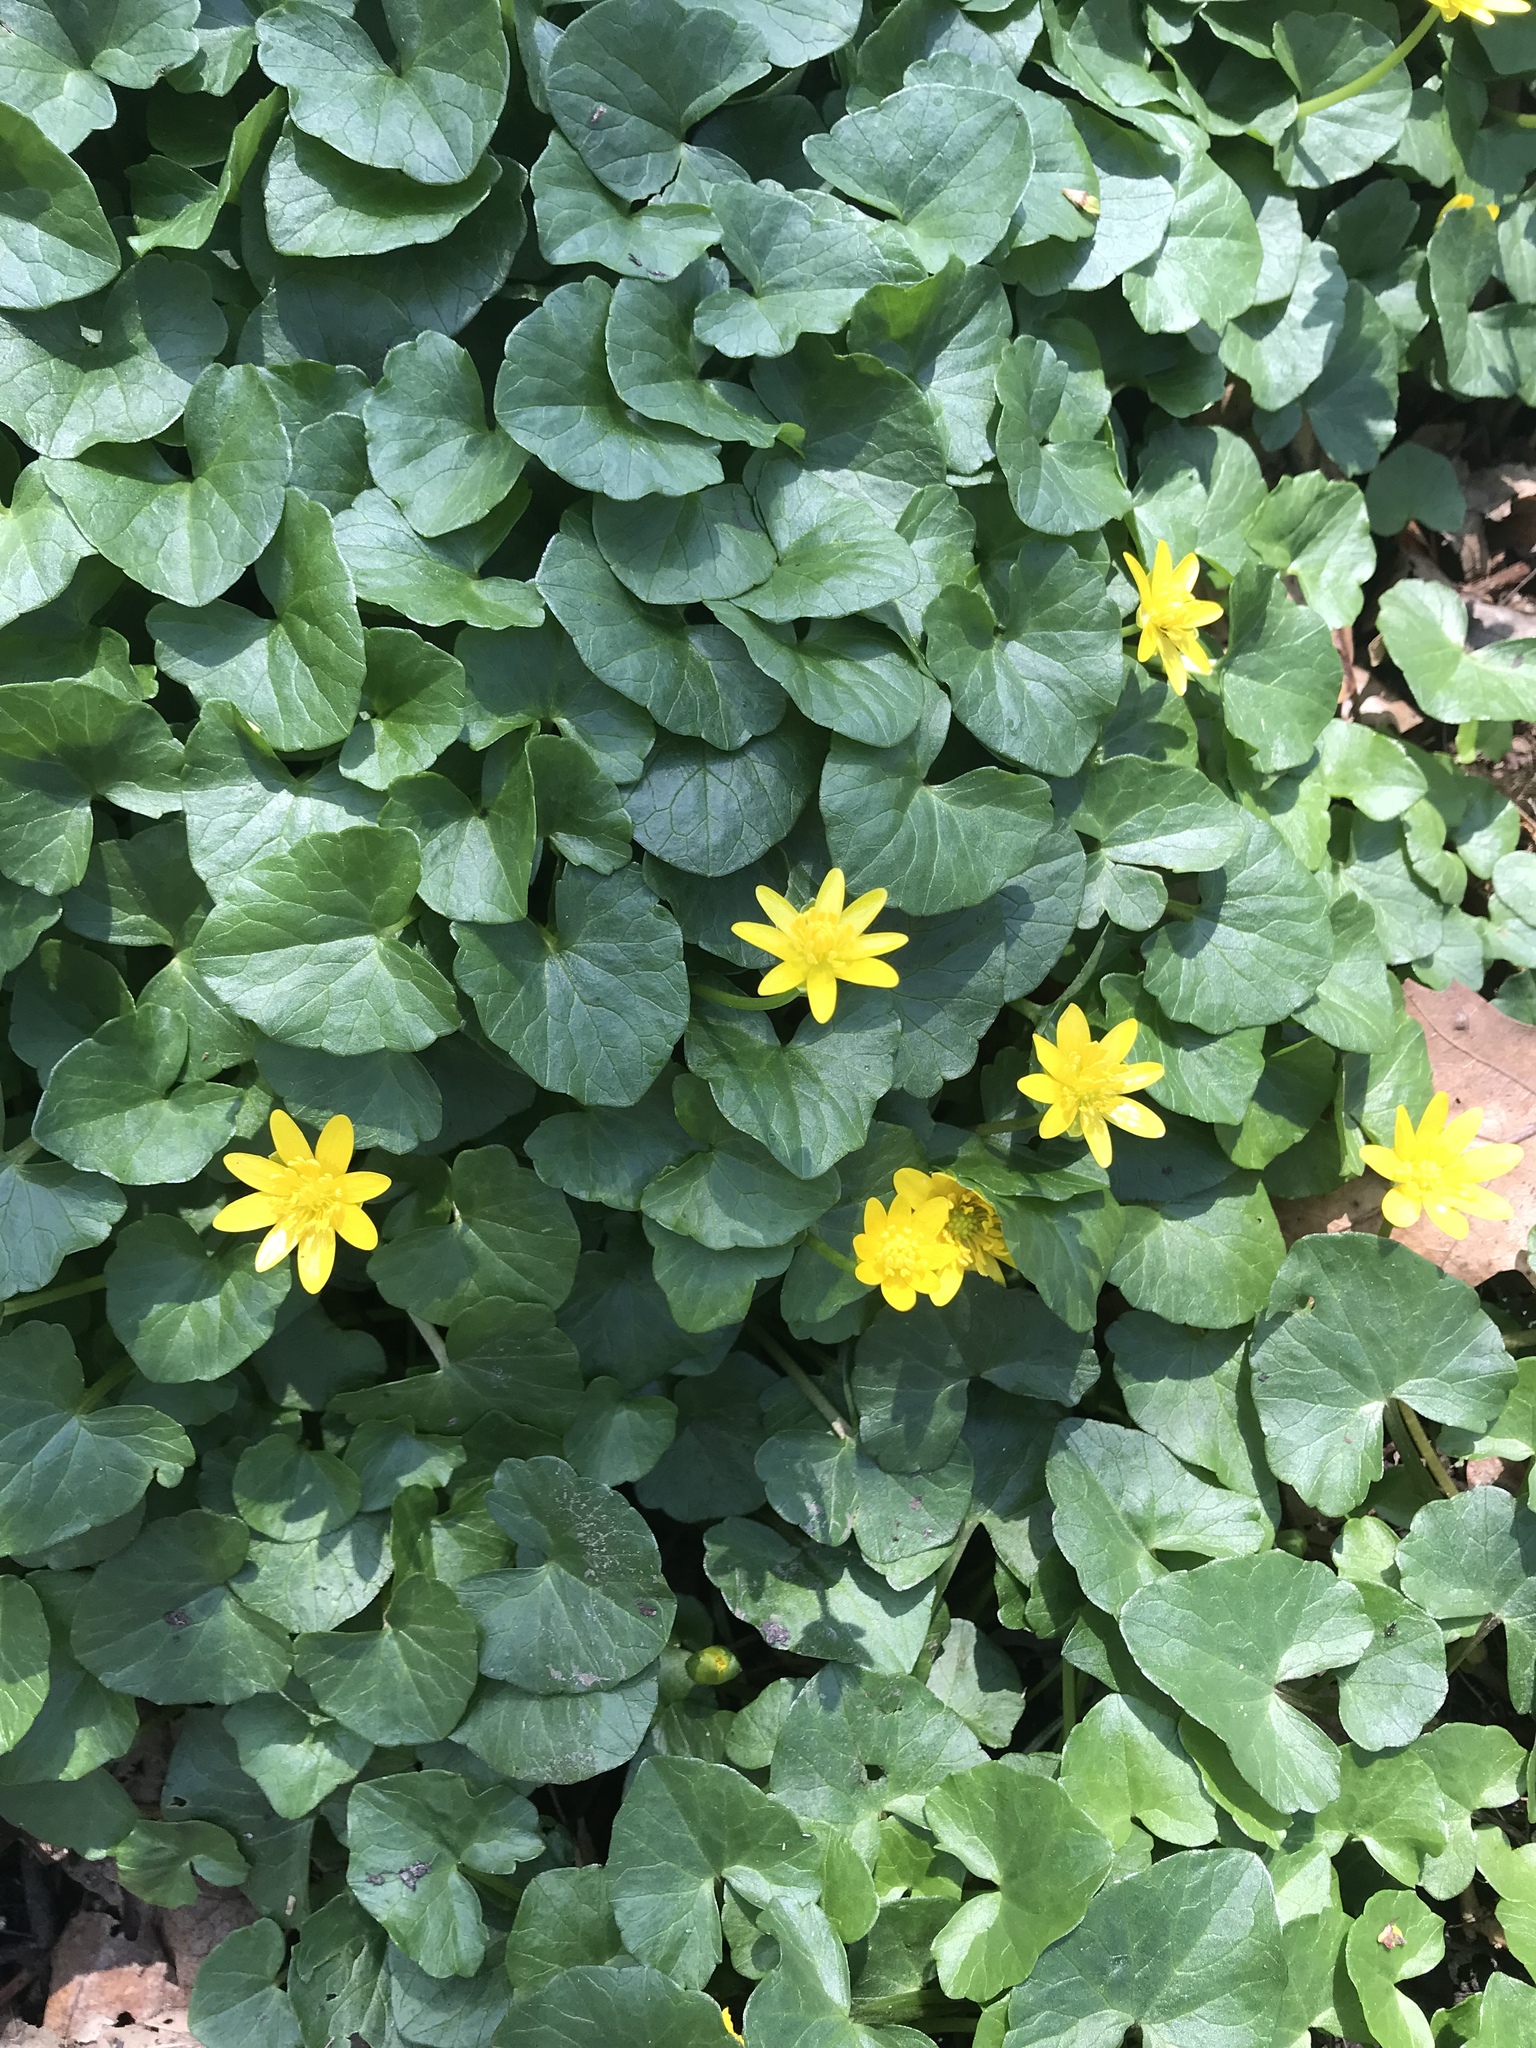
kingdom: Plantae
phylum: Tracheophyta
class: Magnoliopsida
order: Ranunculales
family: Ranunculaceae
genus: Ficaria
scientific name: Ficaria verna
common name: Lesser celandine
